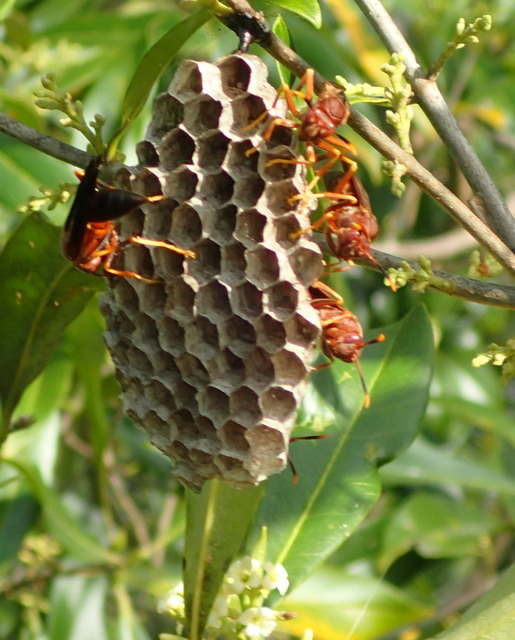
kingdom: Animalia
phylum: Arthropoda
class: Insecta
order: Hymenoptera
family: Eumenidae
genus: Polistes
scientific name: Polistes annularis
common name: Ringed paper wasp
